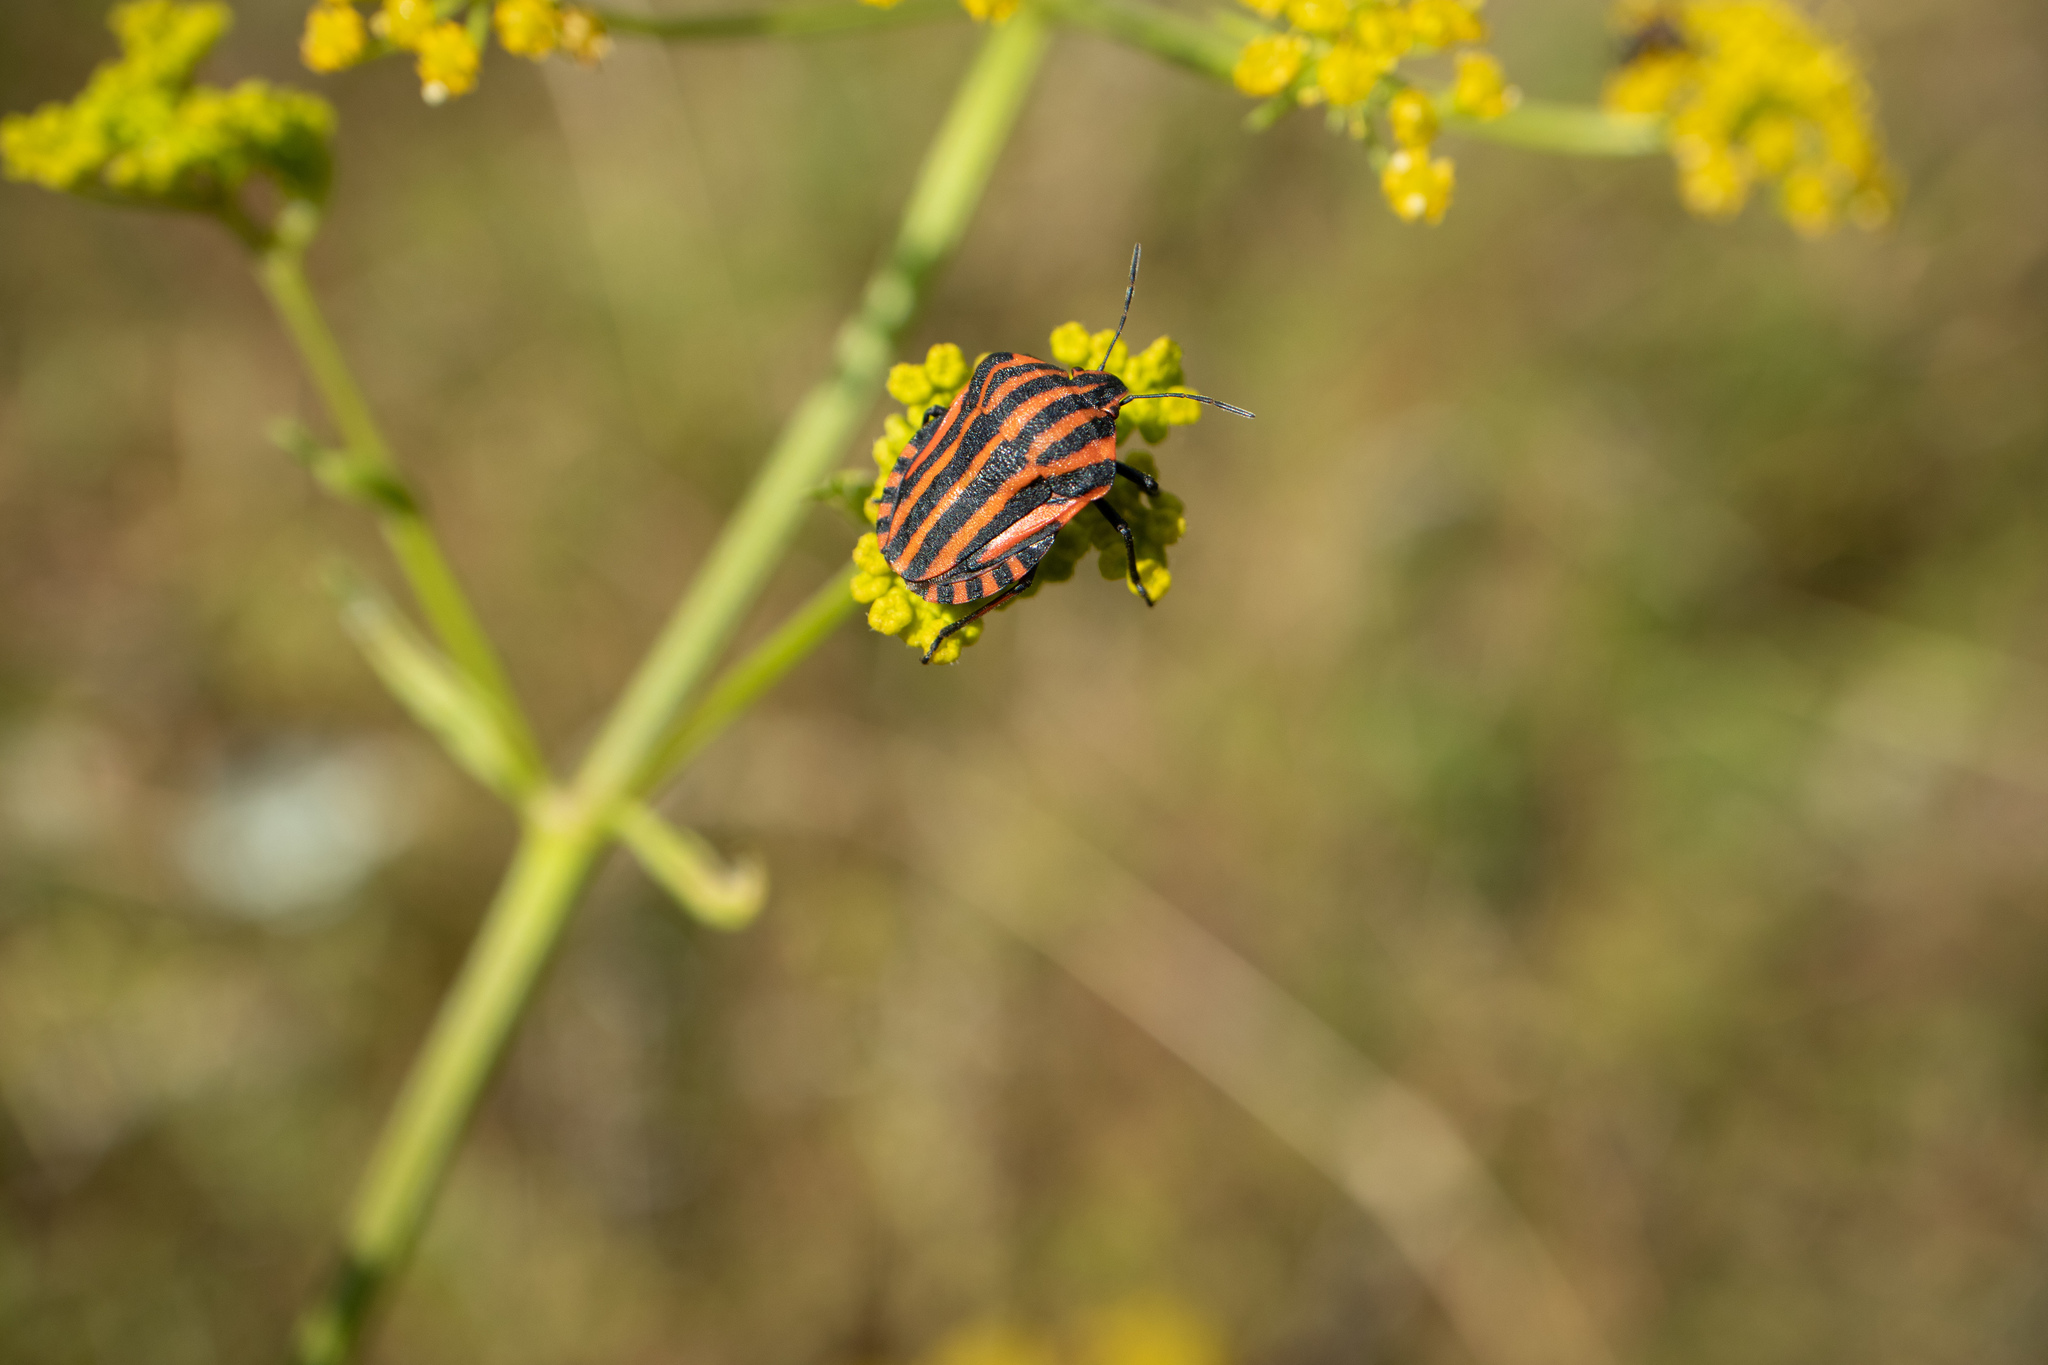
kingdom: Animalia
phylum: Arthropoda
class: Insecta
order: Hemiptera
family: Pentatomidae
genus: Graphosoma
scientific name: Graphosoma italicum
